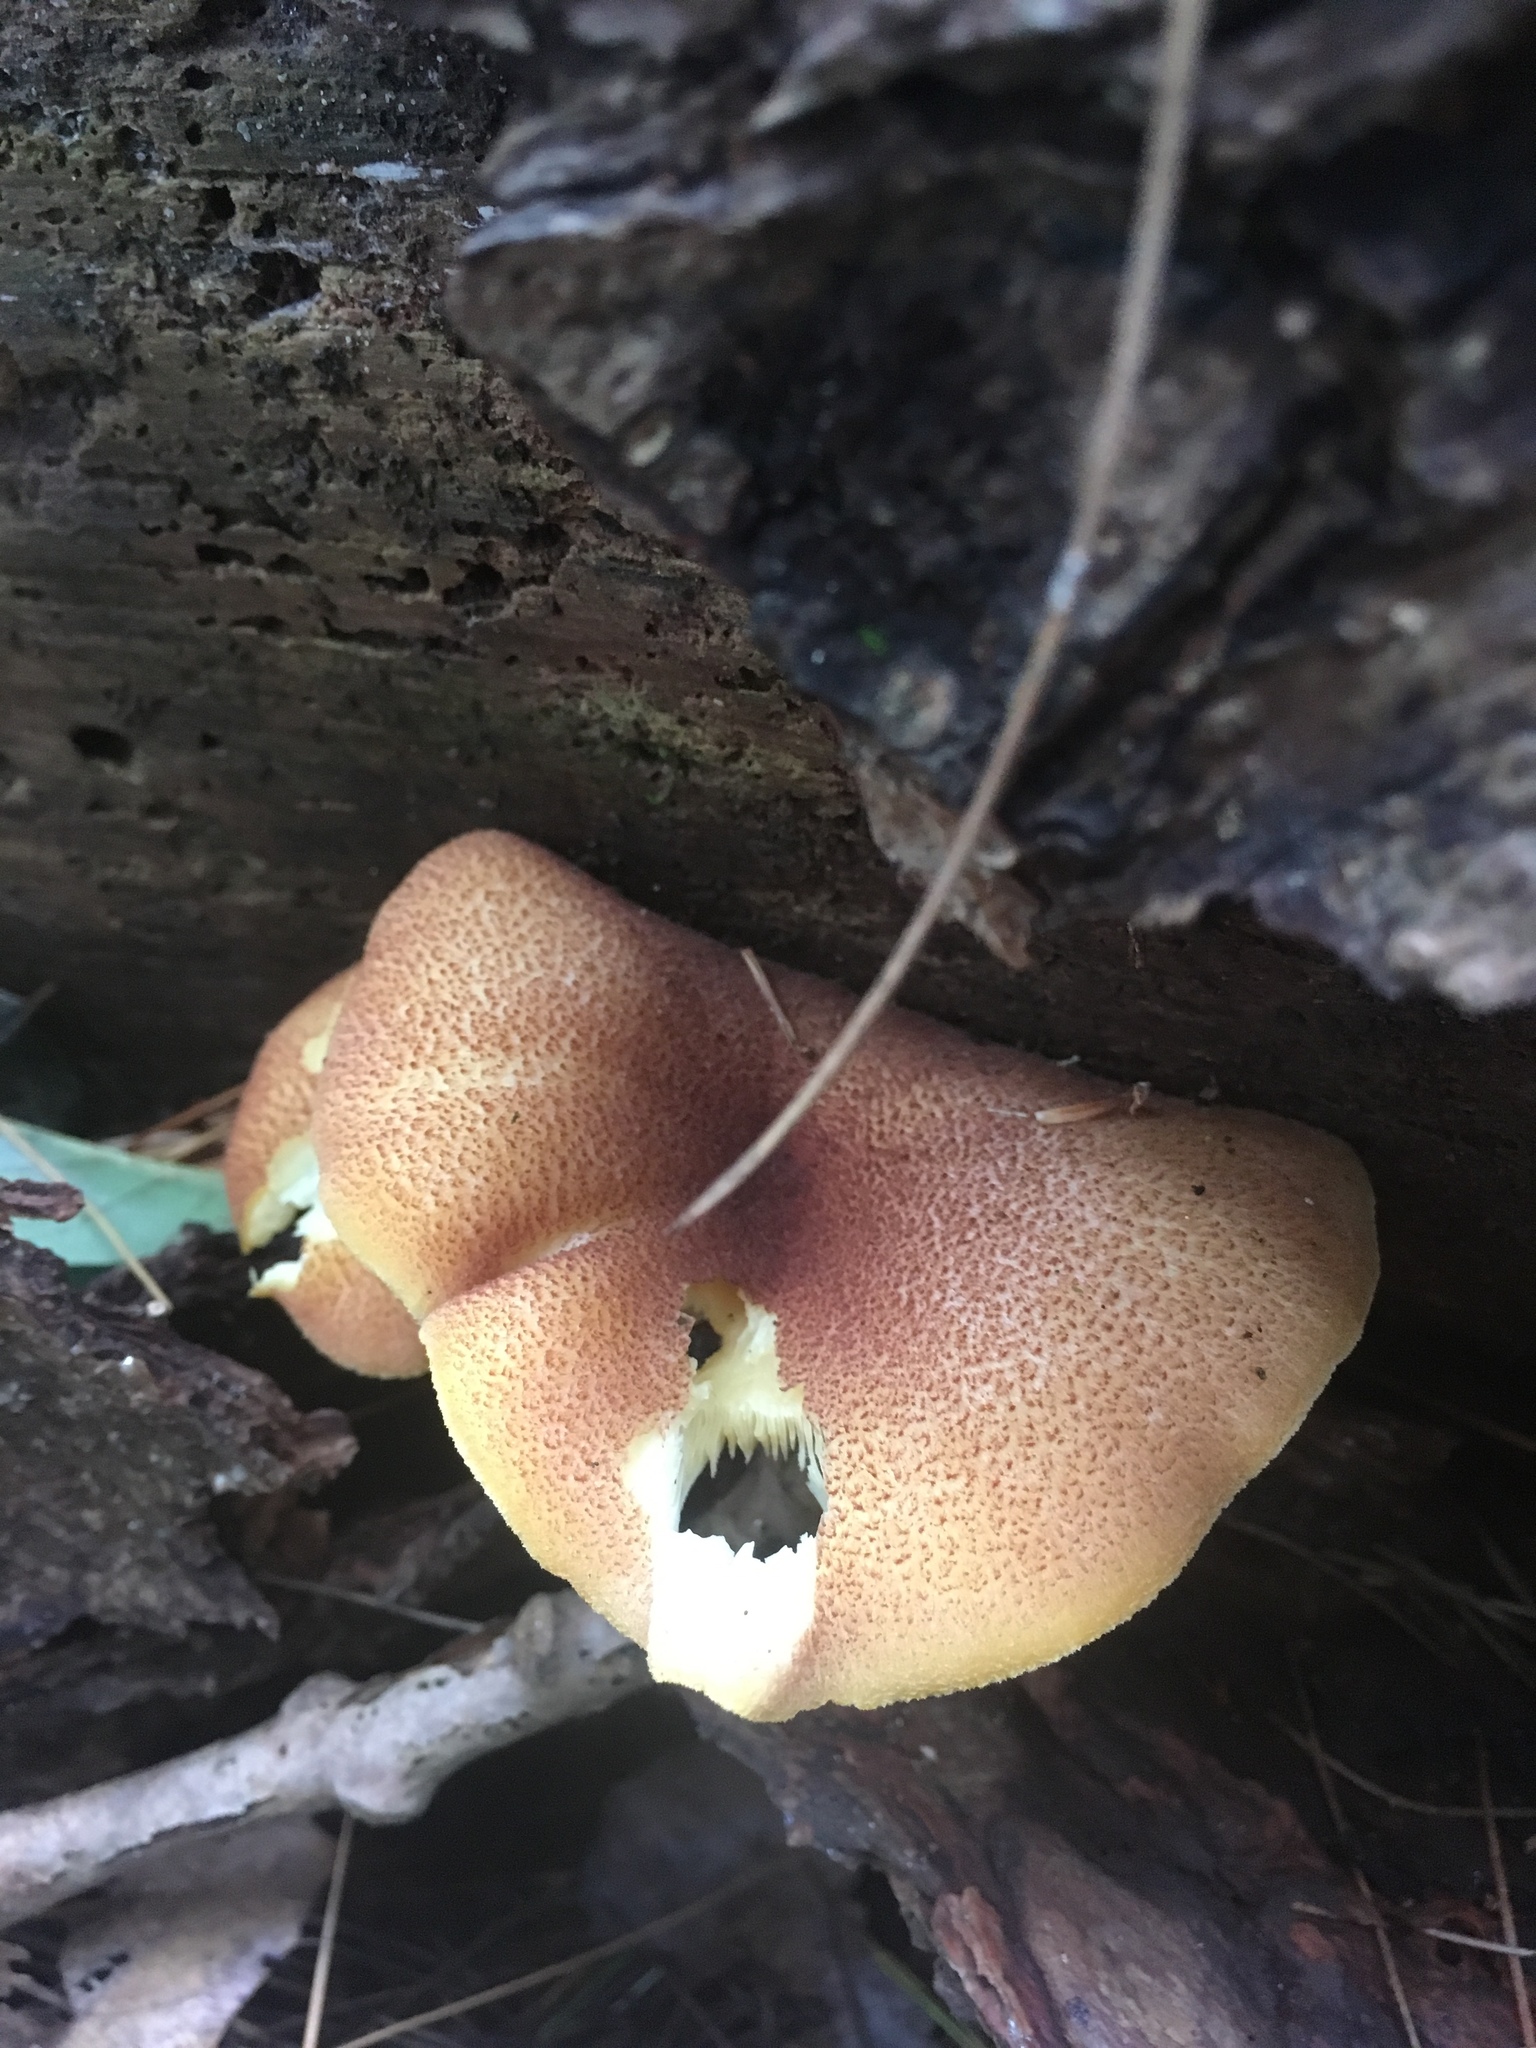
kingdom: Fungi
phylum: Basidiomycota
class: Agaricomycetes
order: Agaricales
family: Tricholomataceae
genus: Tricholomopsis
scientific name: Tricholomopsis rutilans
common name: Plums and custard
